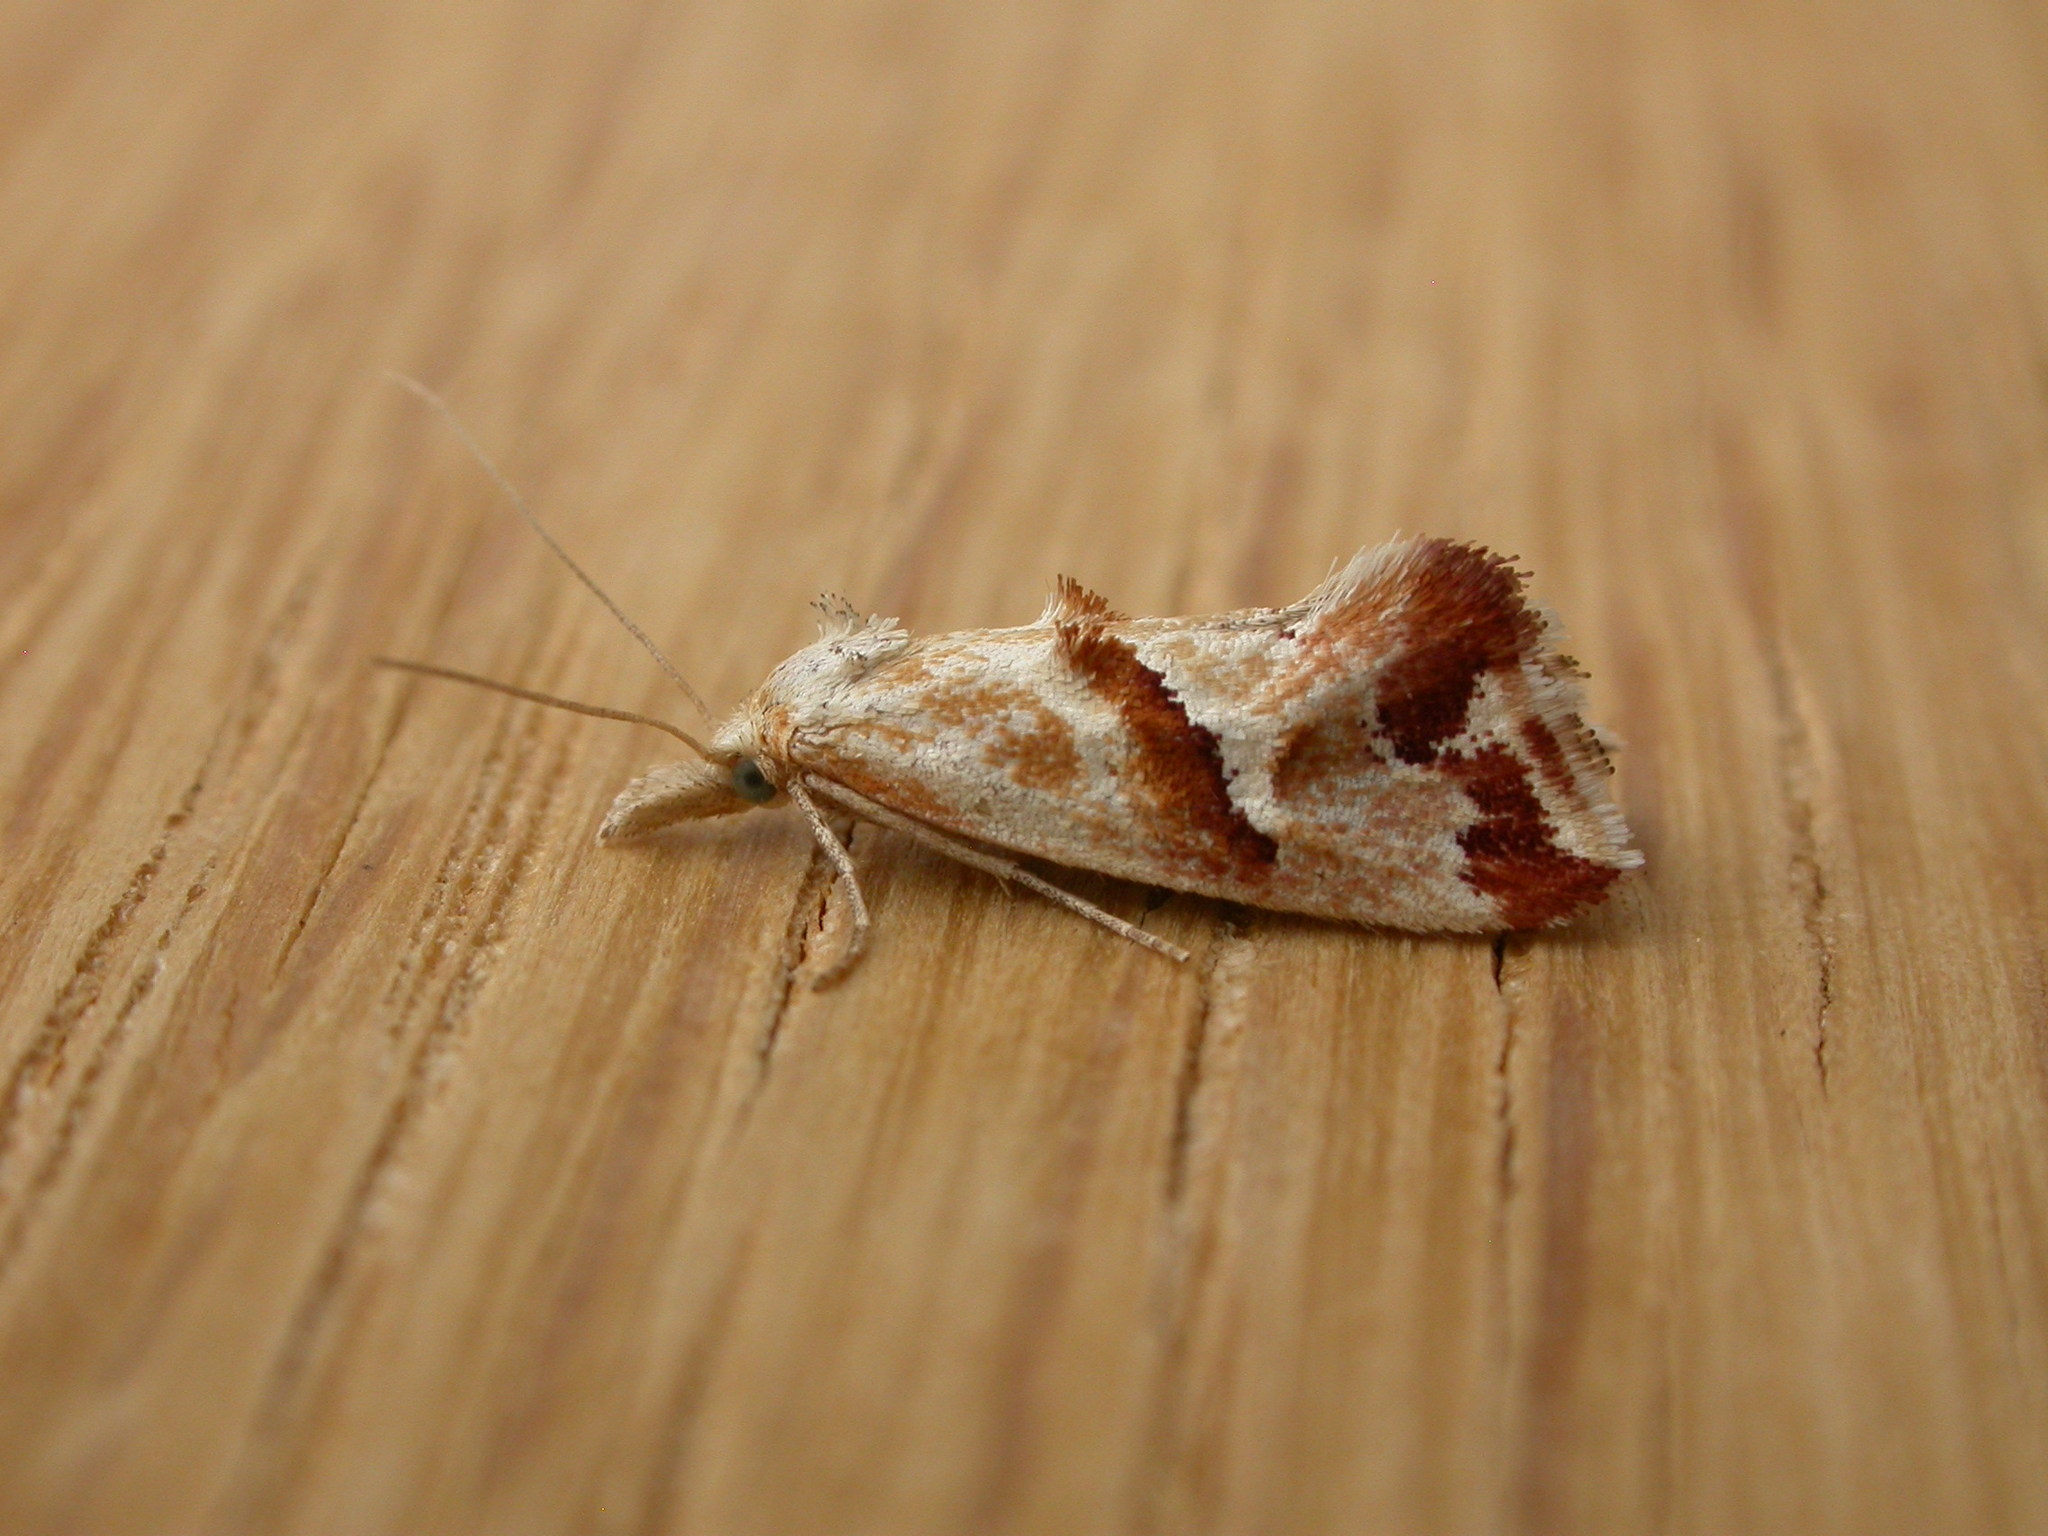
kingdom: Animalia
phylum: Arthropoda
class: Insecta
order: Lepidoptera
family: Tortricidae
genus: Heliocosma
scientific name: Heliocosma
